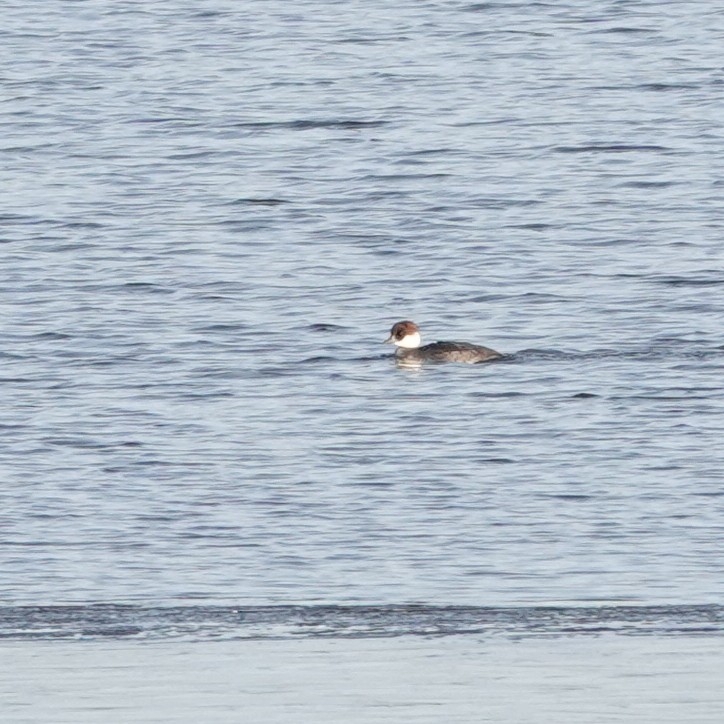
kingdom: Animalia
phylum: Chordata
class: Aves
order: Anseriformes
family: Anatidae
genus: Mergellus
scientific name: Mergellus albellus
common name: Smew
